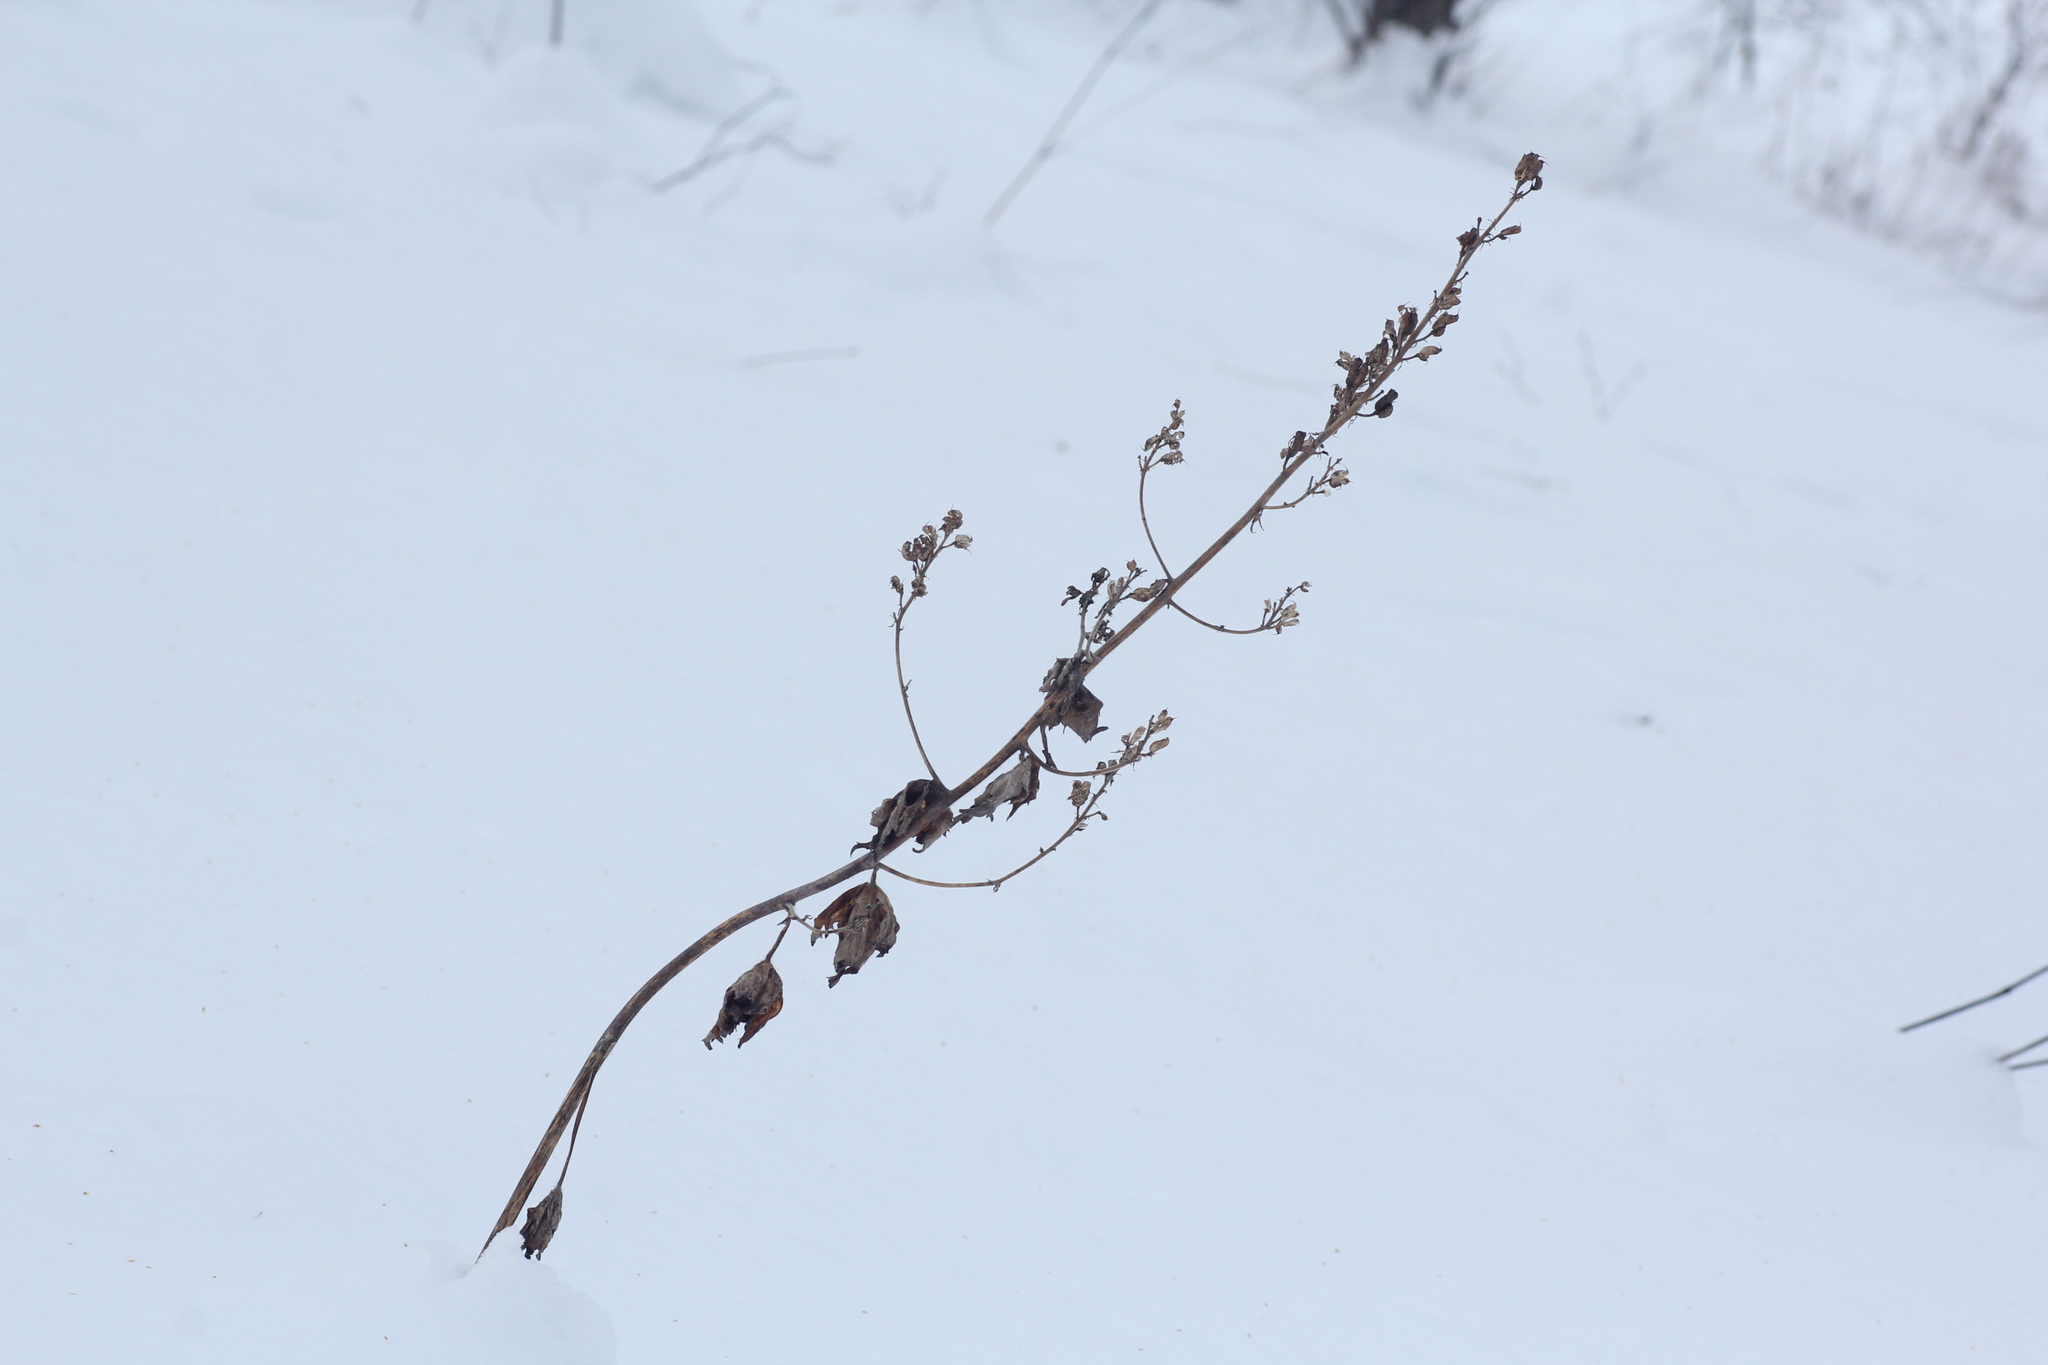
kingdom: Plantae
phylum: Tracheophyta
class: Magnoliopsida
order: Ranunculales
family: Ranunculaceae
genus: Delphinium
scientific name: Delphinium elatum
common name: Candle larkspur
